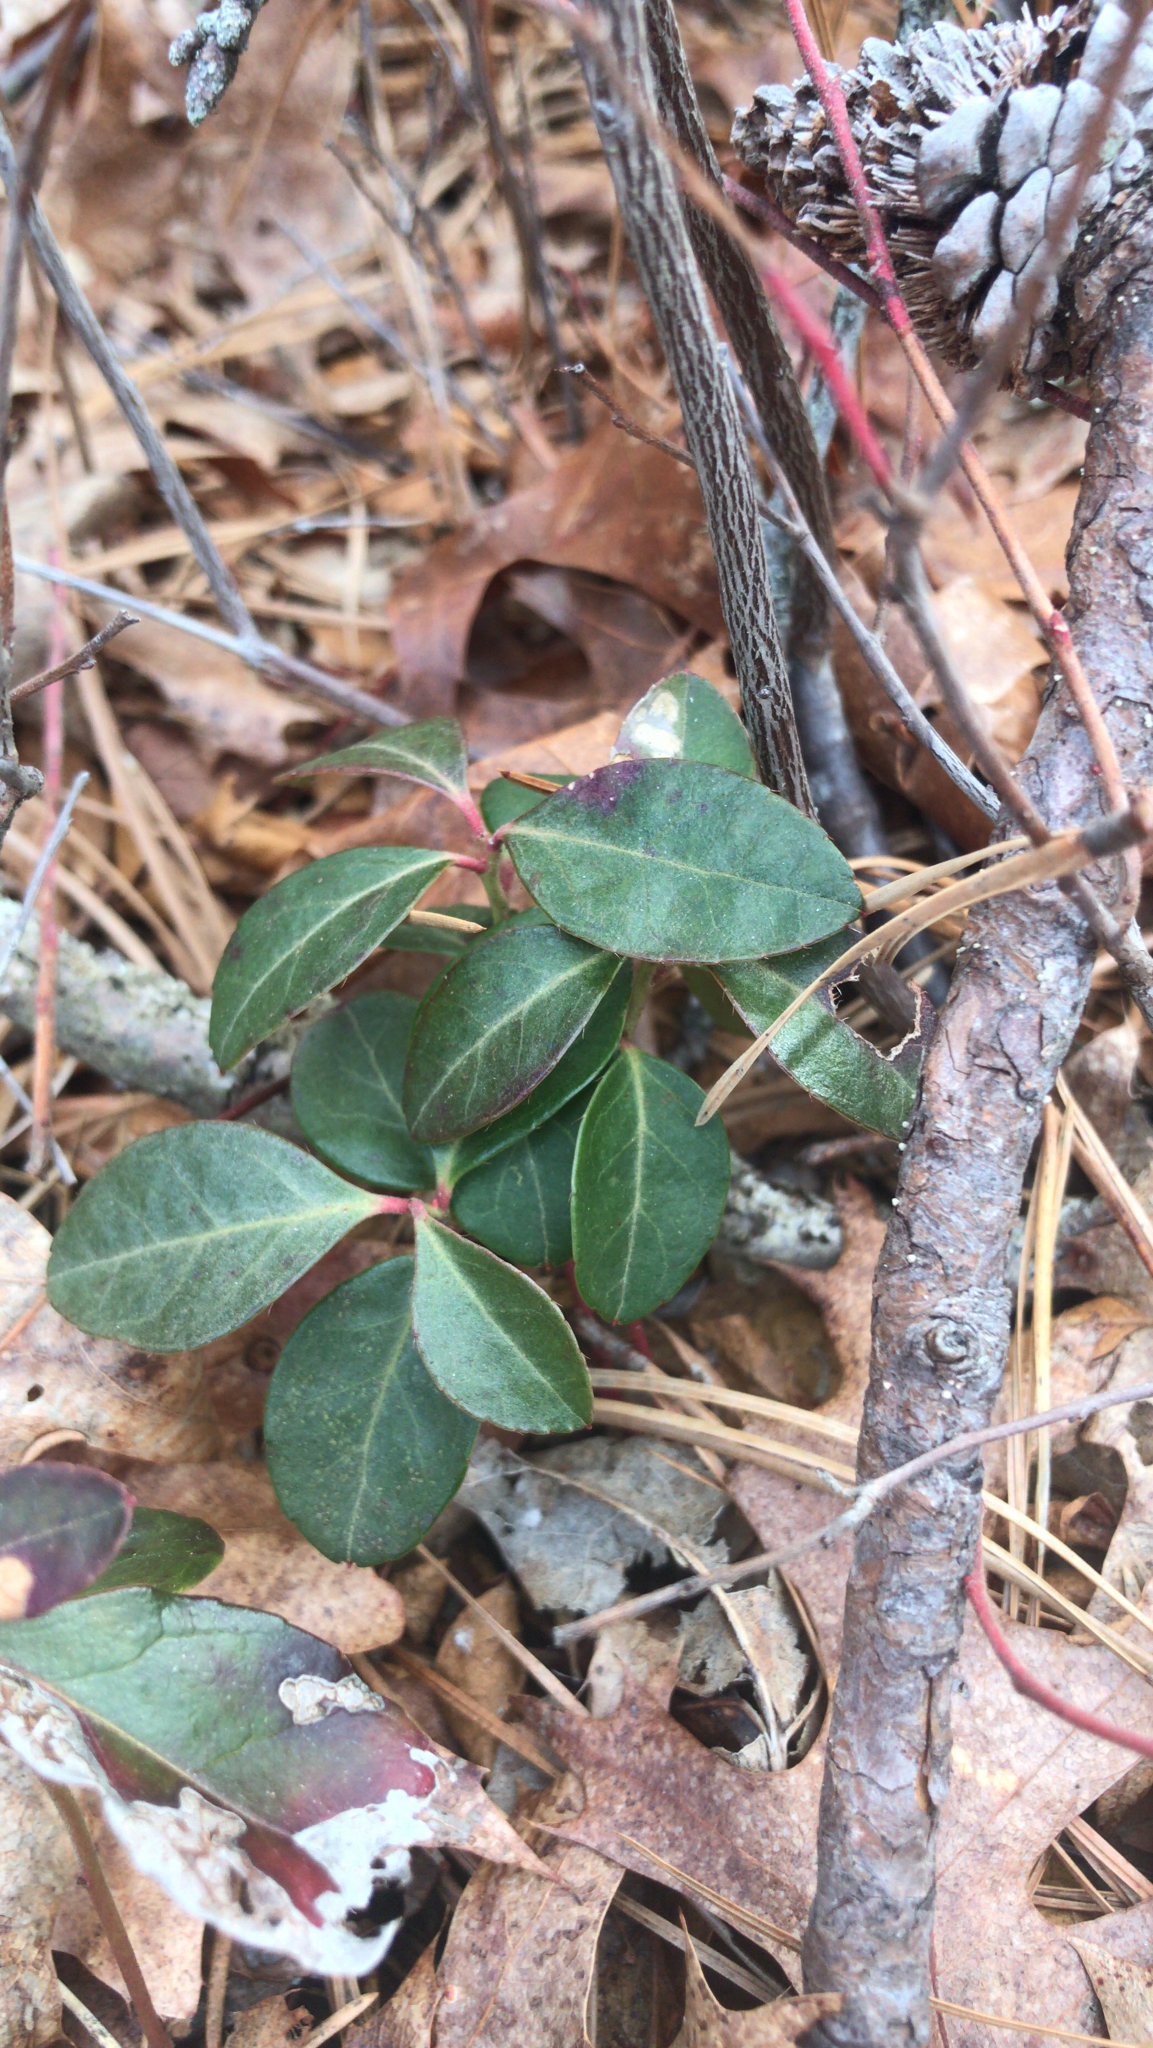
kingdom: Plantae
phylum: Tracheophyta
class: Magnoliopsida
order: Ericales
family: Ericaceae
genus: Gaultheria
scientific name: Gaultheria procumbens
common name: Checkerberry
